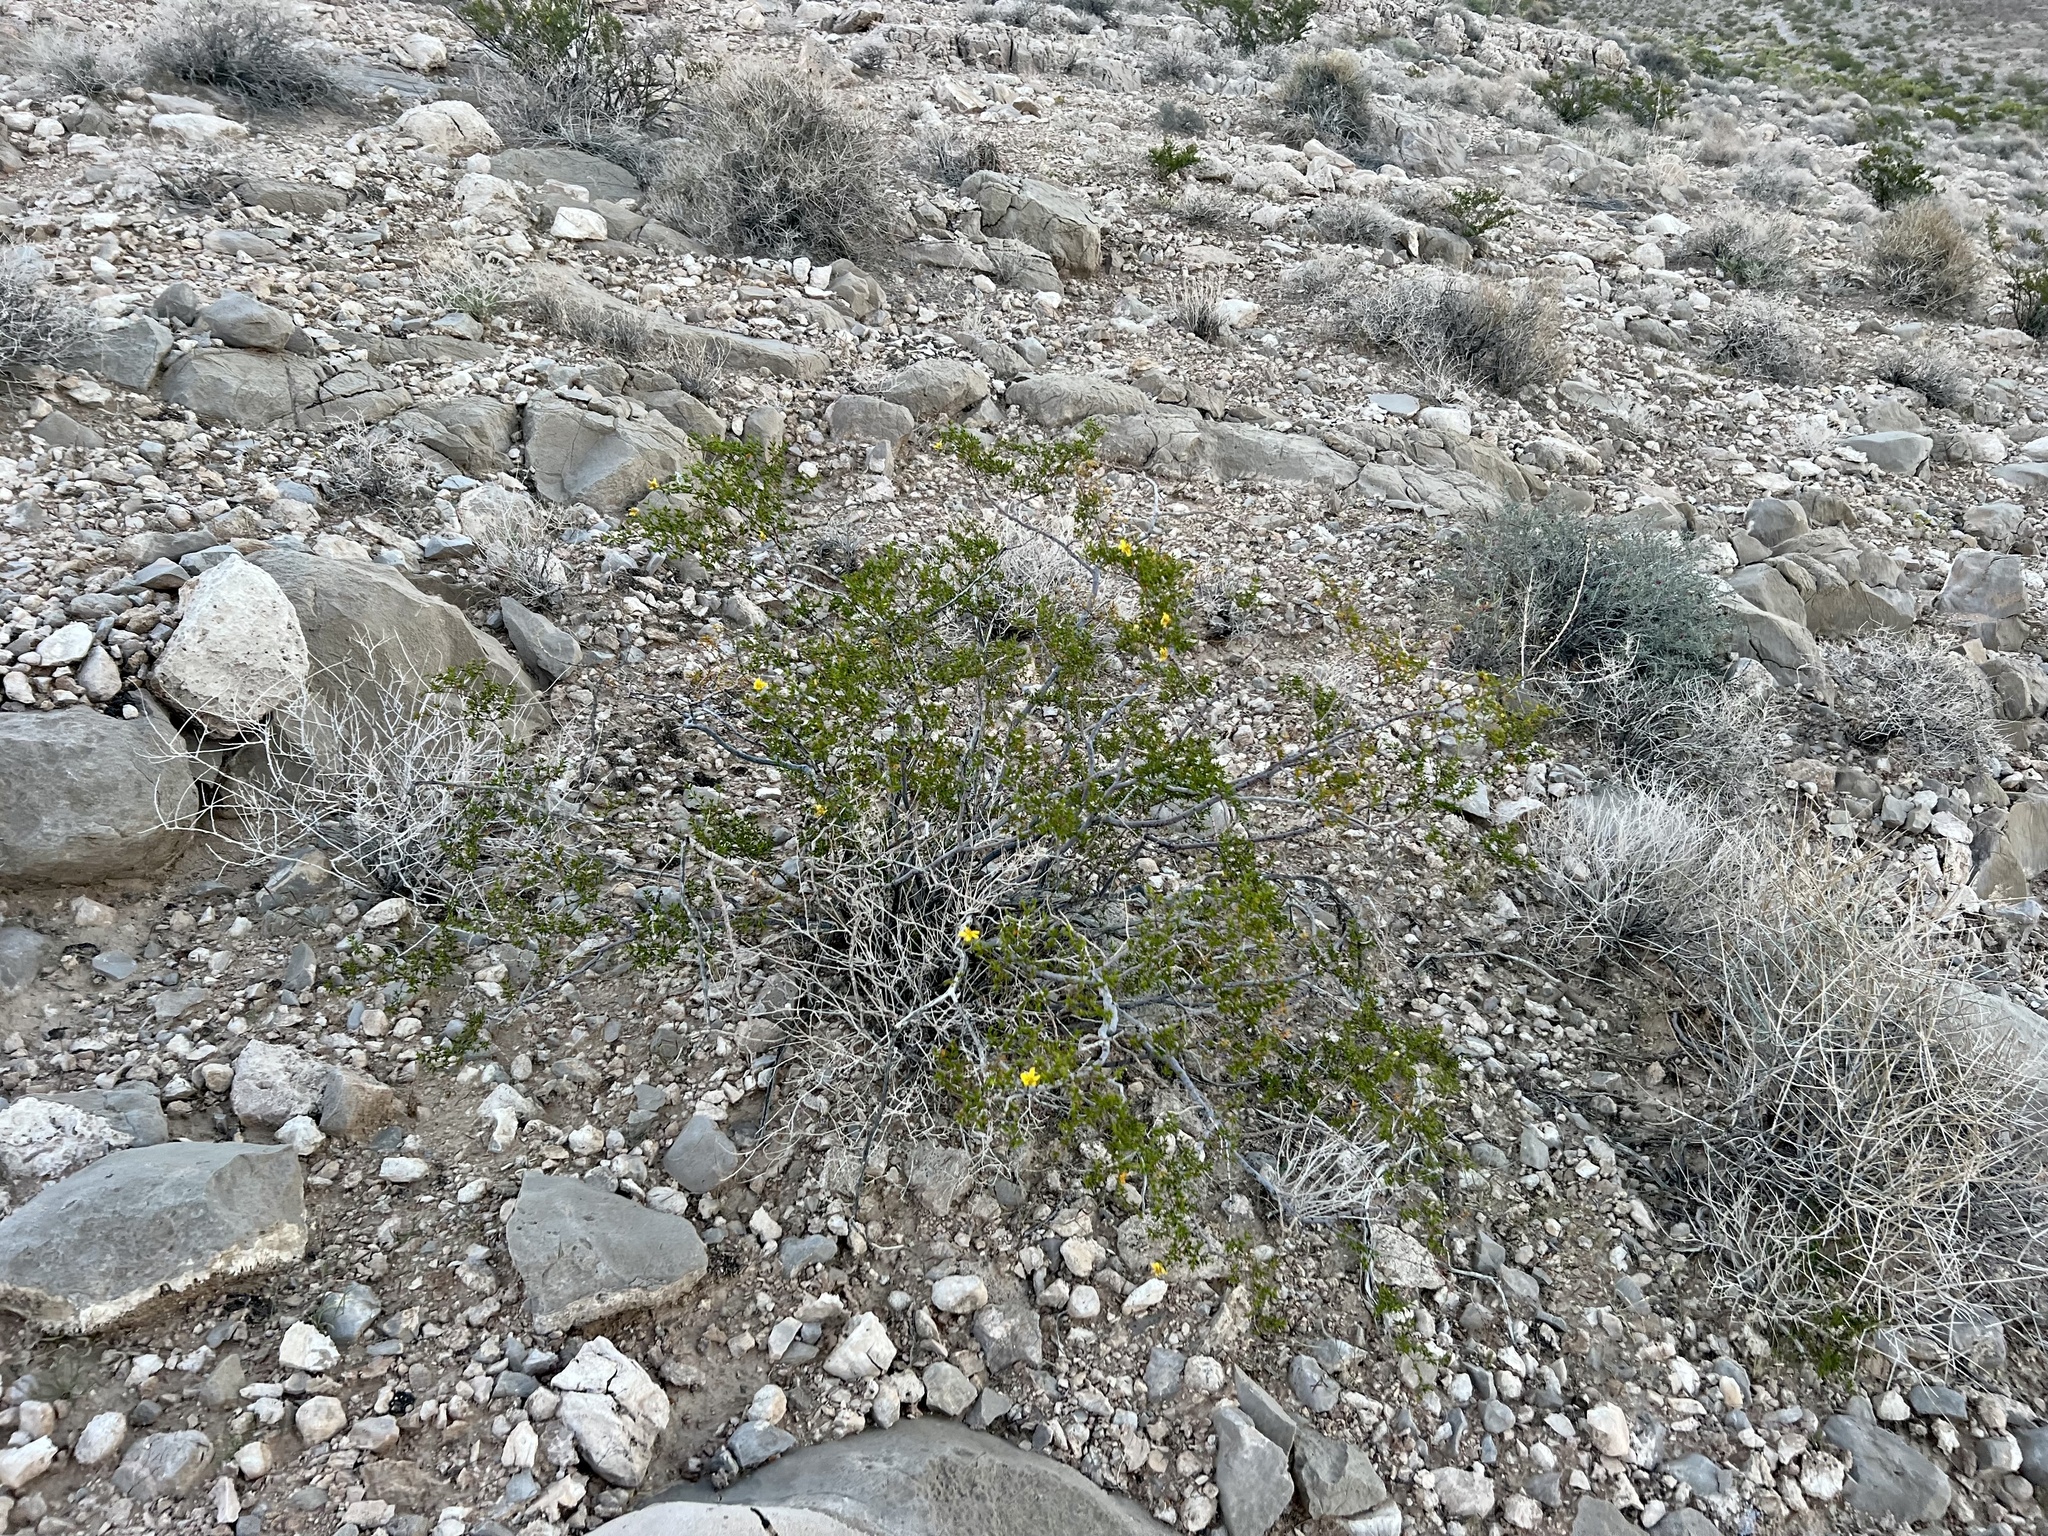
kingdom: Plantae
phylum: Tracheophyta
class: Magnoliopsida
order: Zygophyllales
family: Zygophyllaceae
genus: Larrea
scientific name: Larrea tridentata
